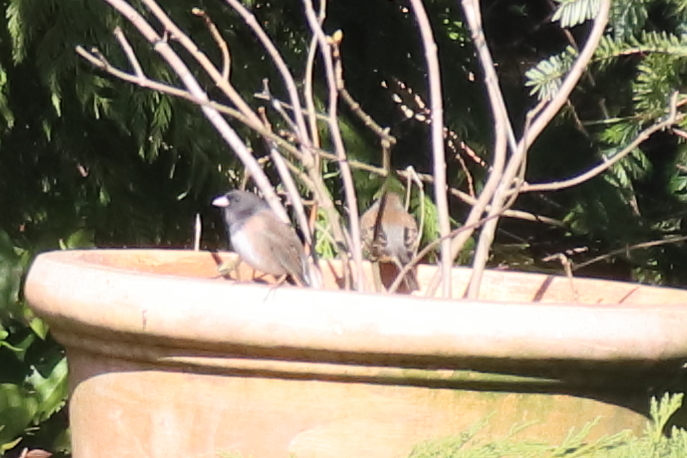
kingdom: Animalia
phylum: Chordata
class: Aves
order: Passeriformes
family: Passerellidae
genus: Junco
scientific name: Junco hyemalis
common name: Dark-eyed junco
